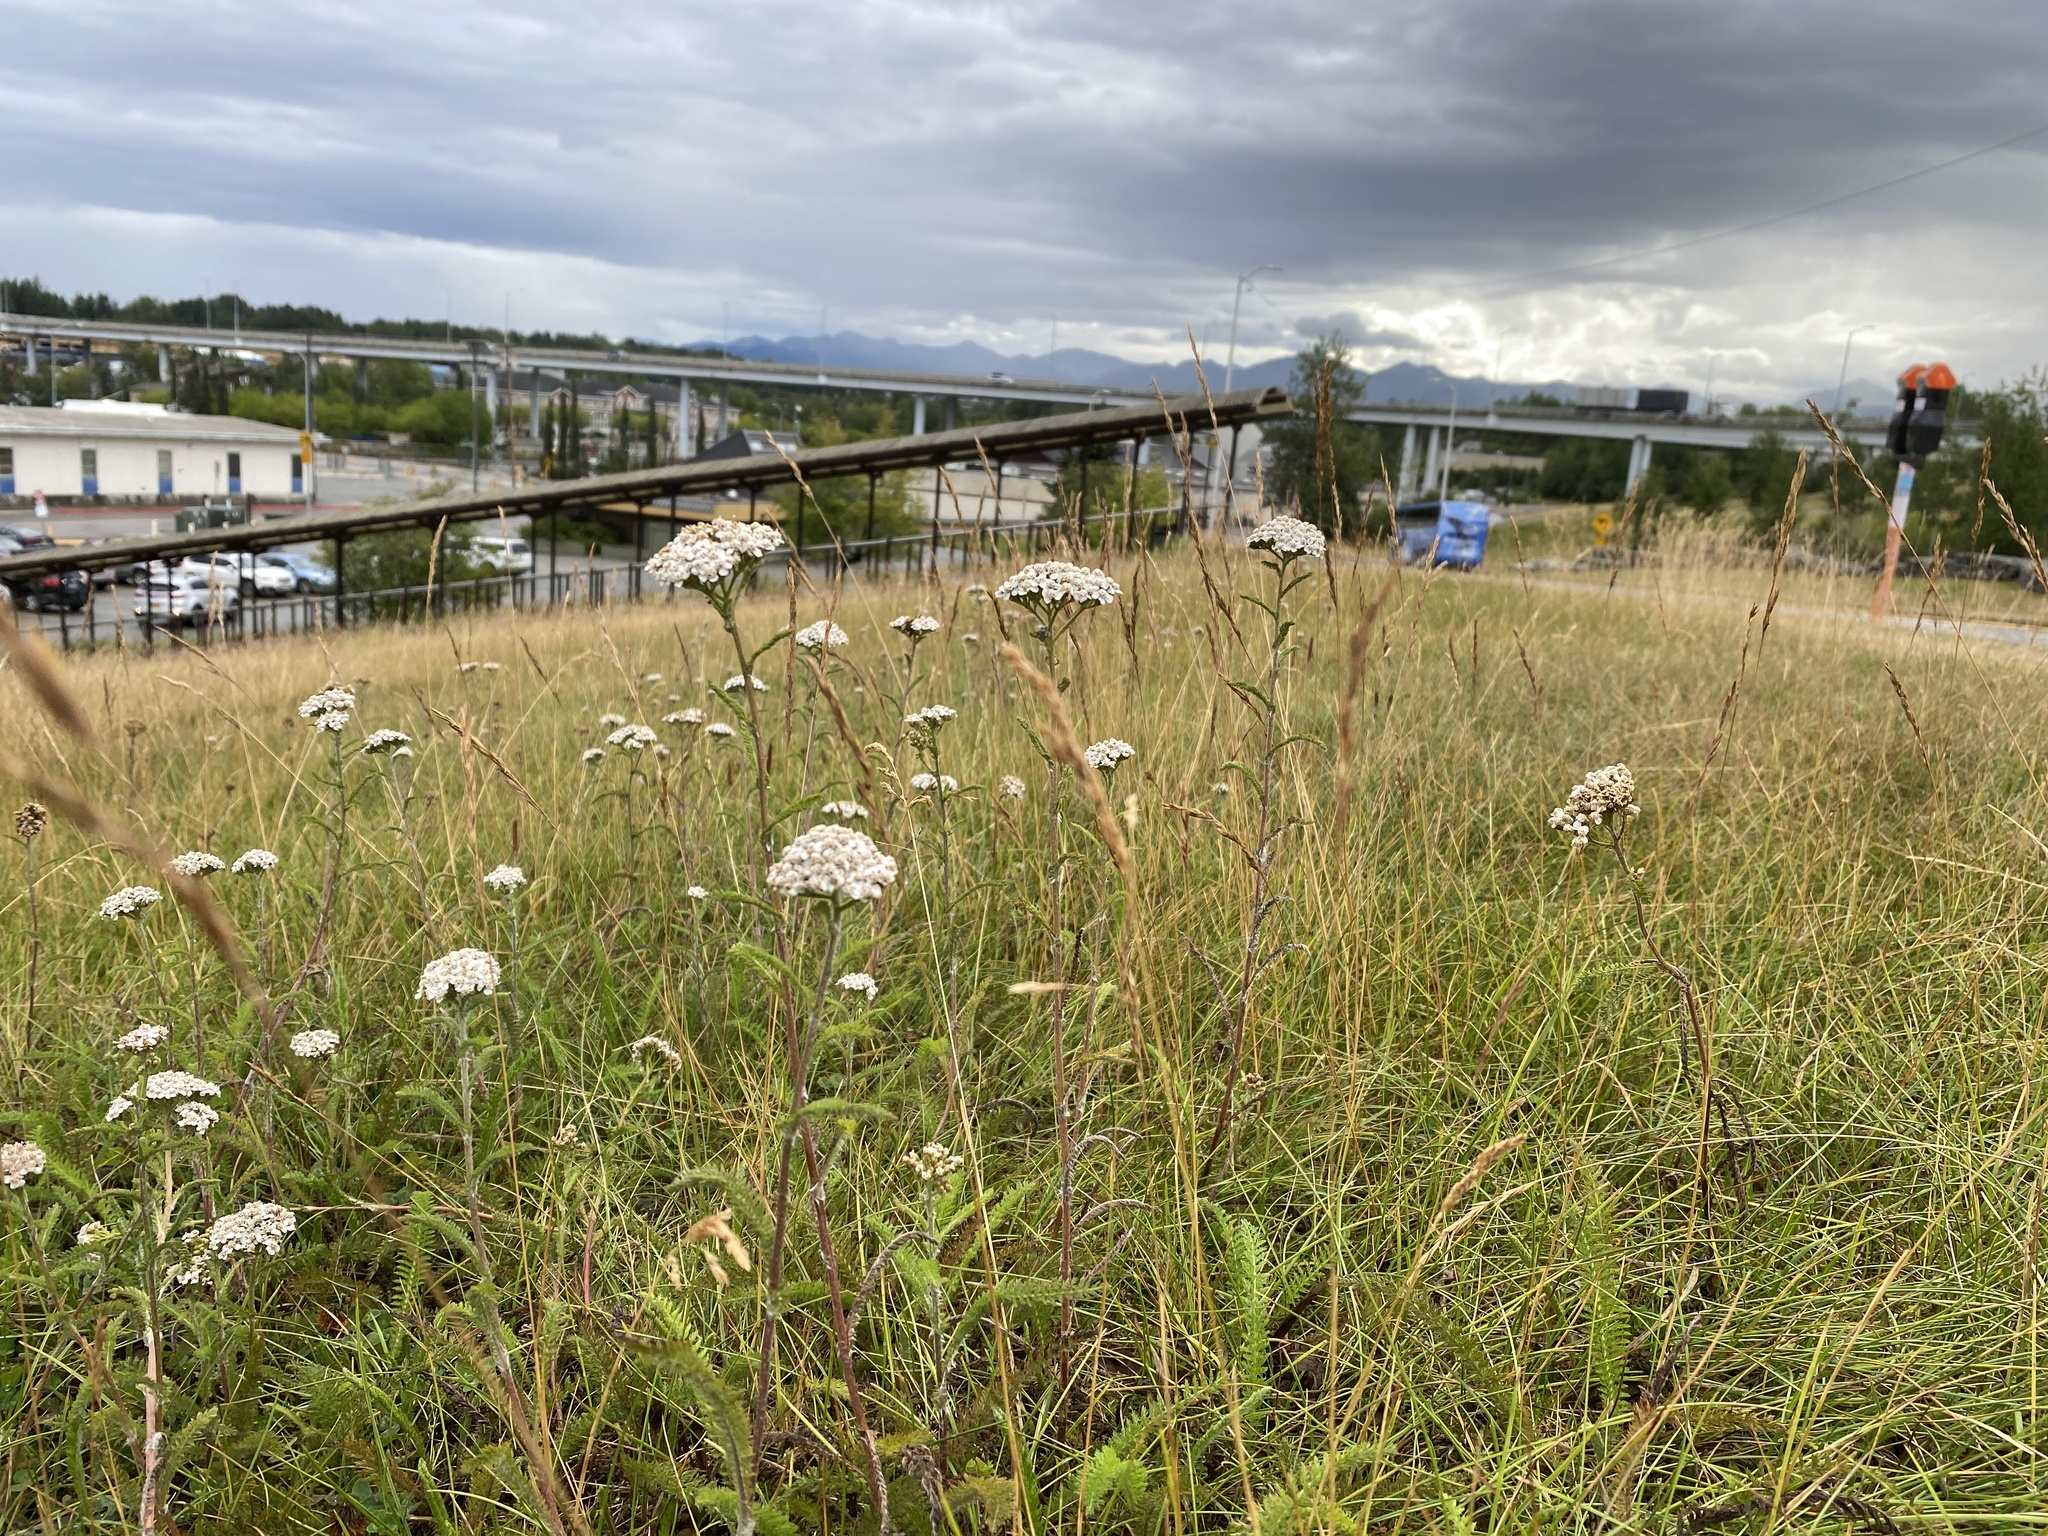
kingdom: Plantae
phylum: Tracheophyta
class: Magnoliopsida
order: Asterales
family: Asteraceae
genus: Achillea
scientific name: Achillea millefolium
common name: Yarrow
